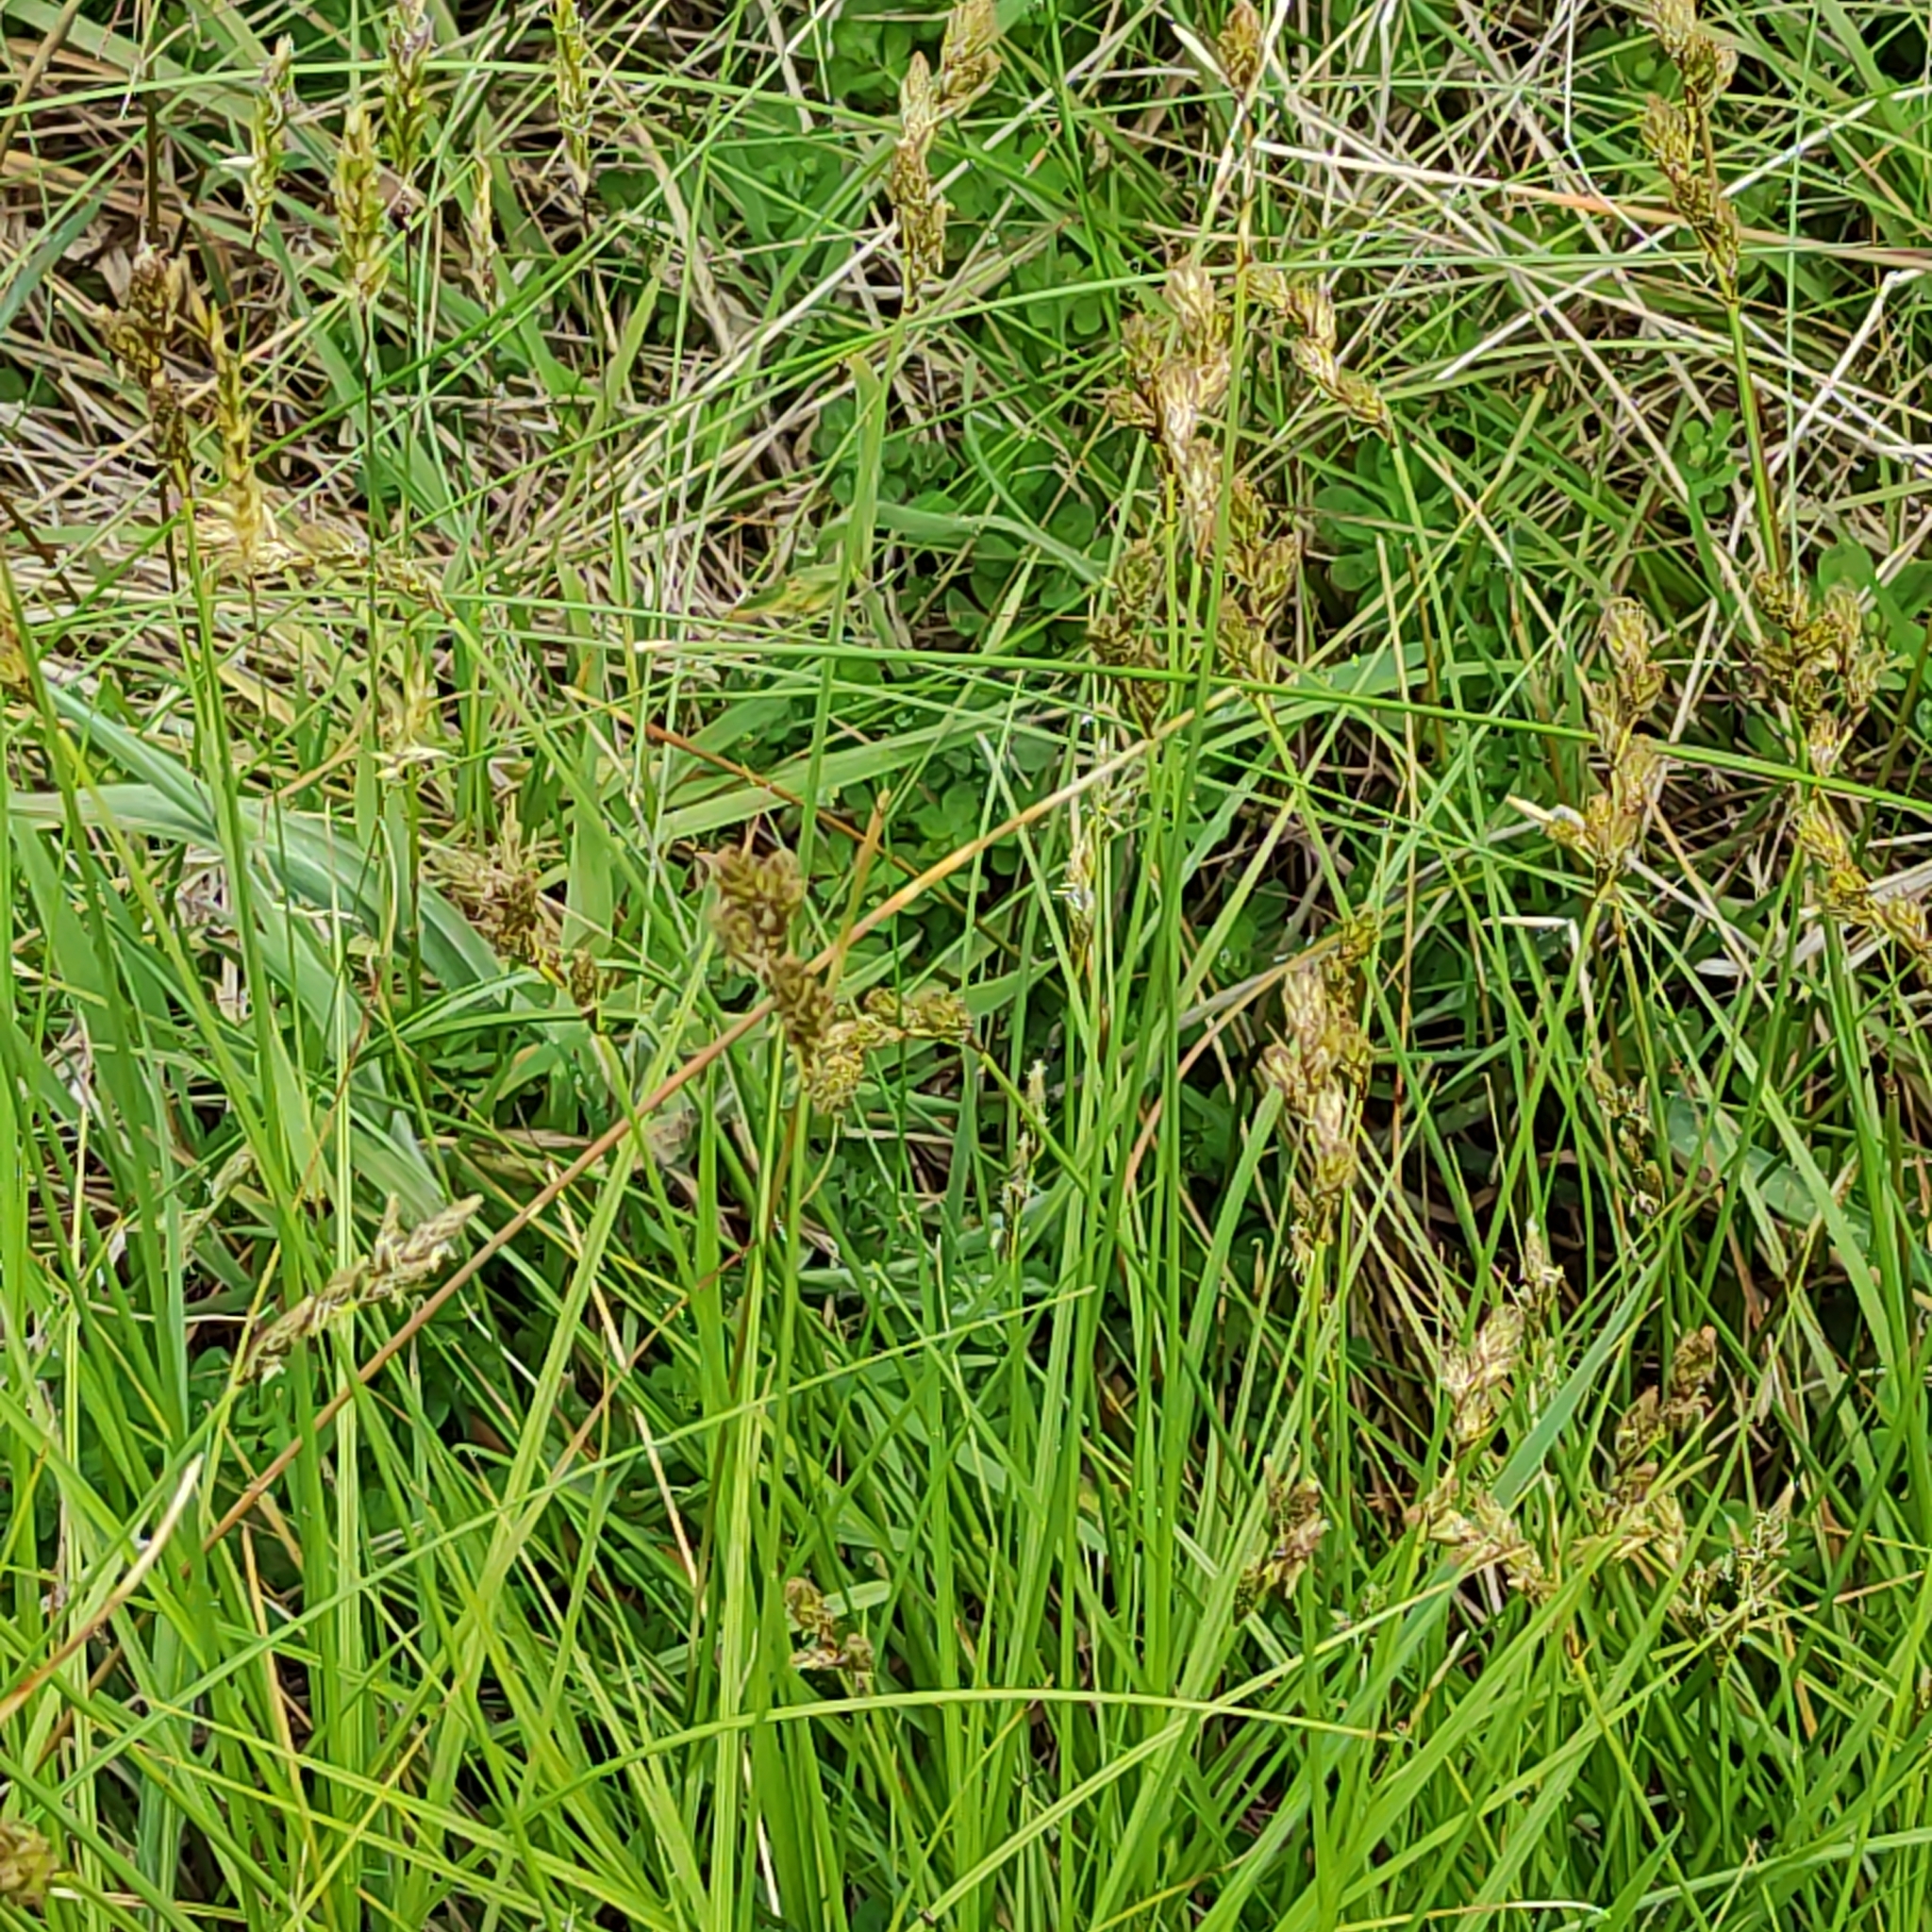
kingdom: Plantae
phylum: Tracheophyta
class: Liliopsida
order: Poales
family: Cyperaceae
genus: Carex
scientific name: Carex leporina
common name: Oval sedge
